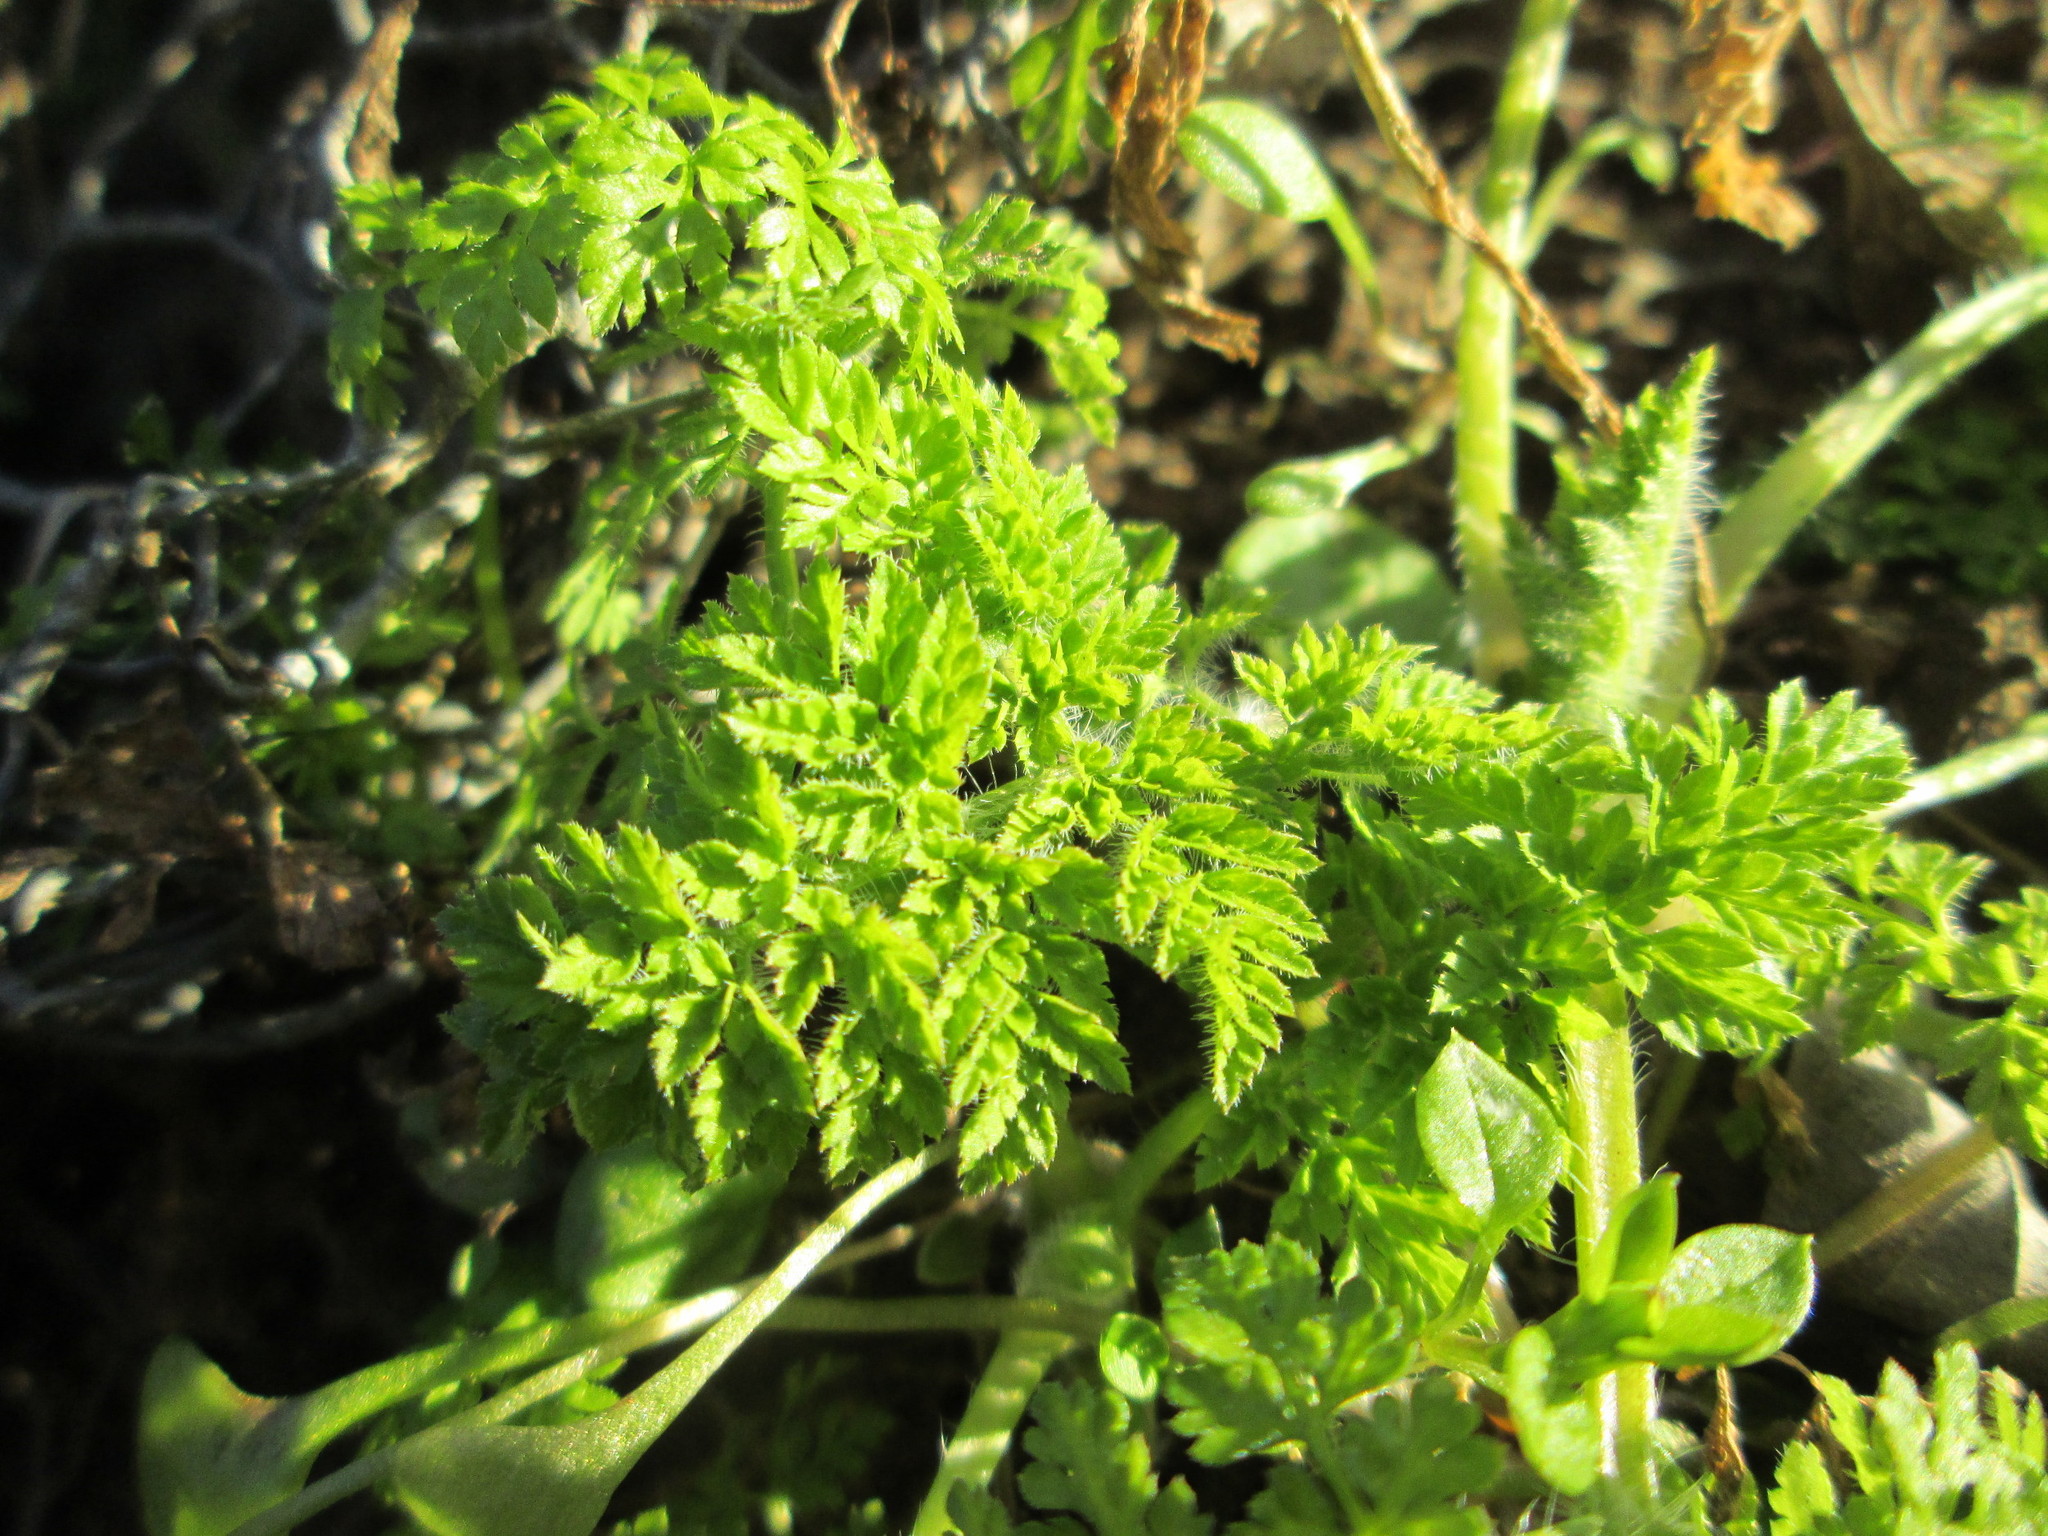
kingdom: Plantae
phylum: Tracheophyta
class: Magnoliopsida
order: Apiales
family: Apiaceae
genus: Anthriscus
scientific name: Anthriscus sylvestris
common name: Cow parsley
